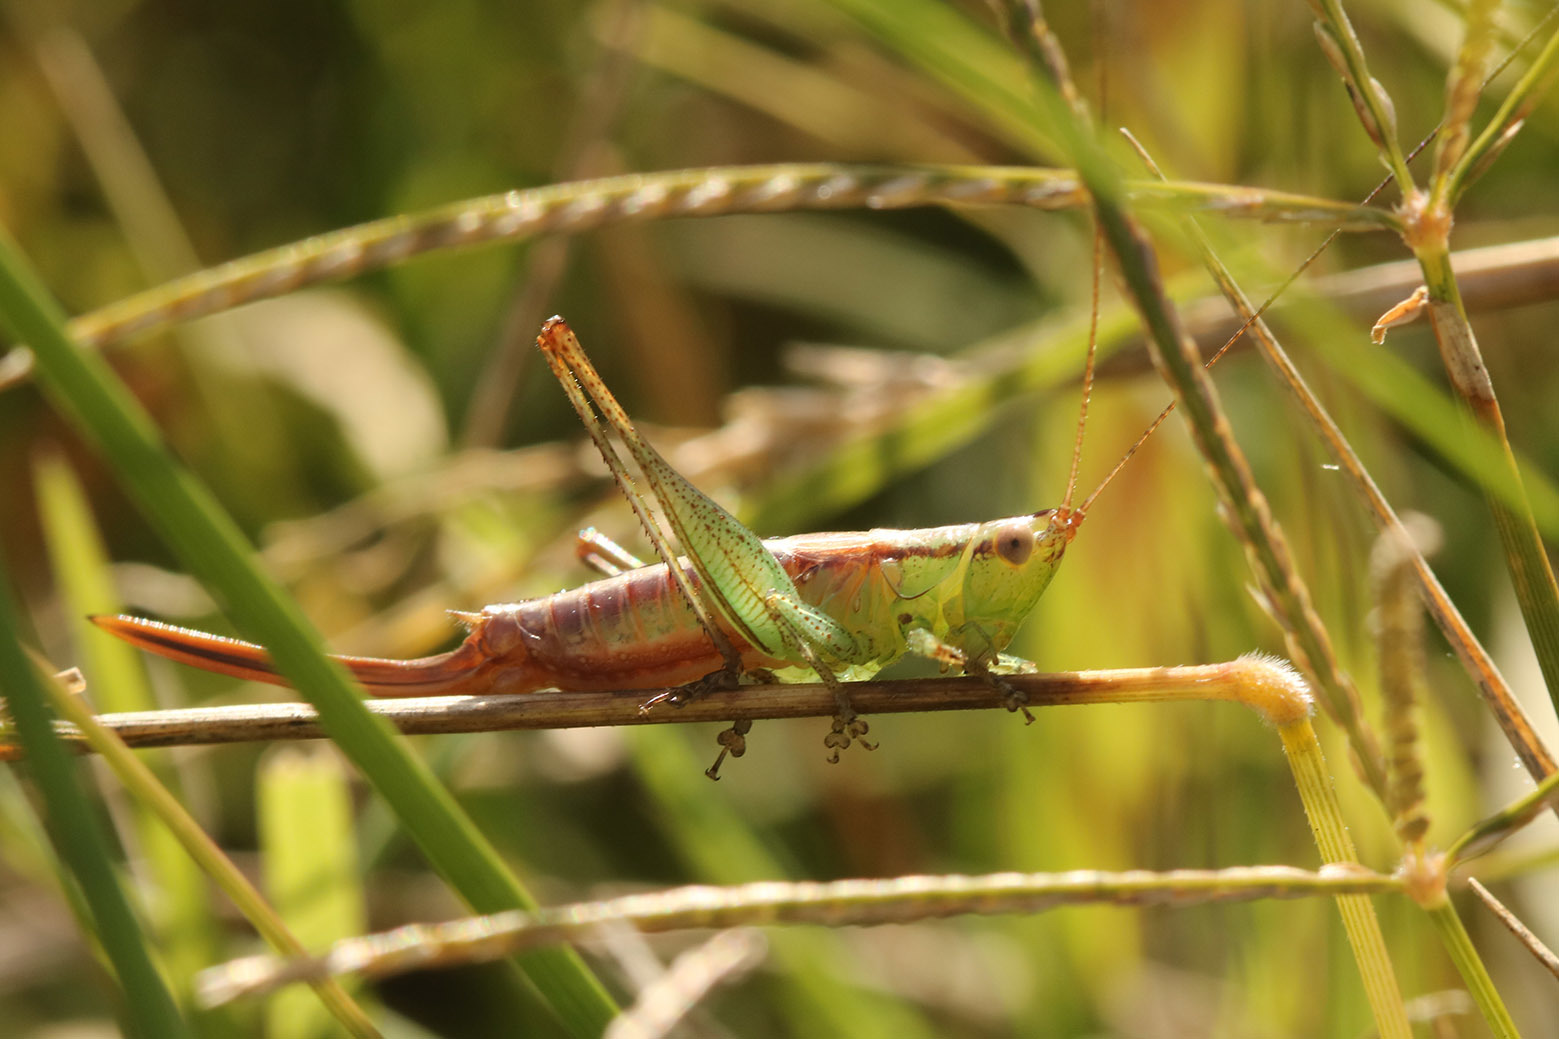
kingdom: Animalia
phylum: Arthropoda
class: Insecta
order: Orthoptera
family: Tettigoniidae
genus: Conocephalus
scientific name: Conocephalus doryphorus
